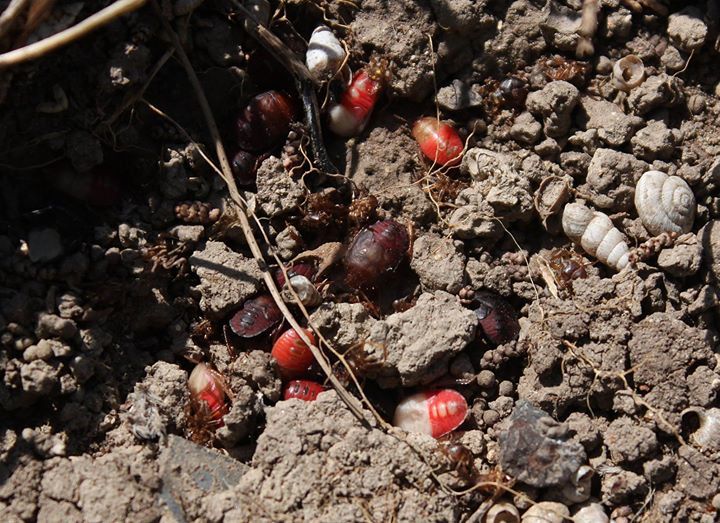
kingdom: Animalia
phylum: Arthropoda
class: Insecta
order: Hemiptera
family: Cydnidae
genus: Cydnus
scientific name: Cydnus aterrimus
